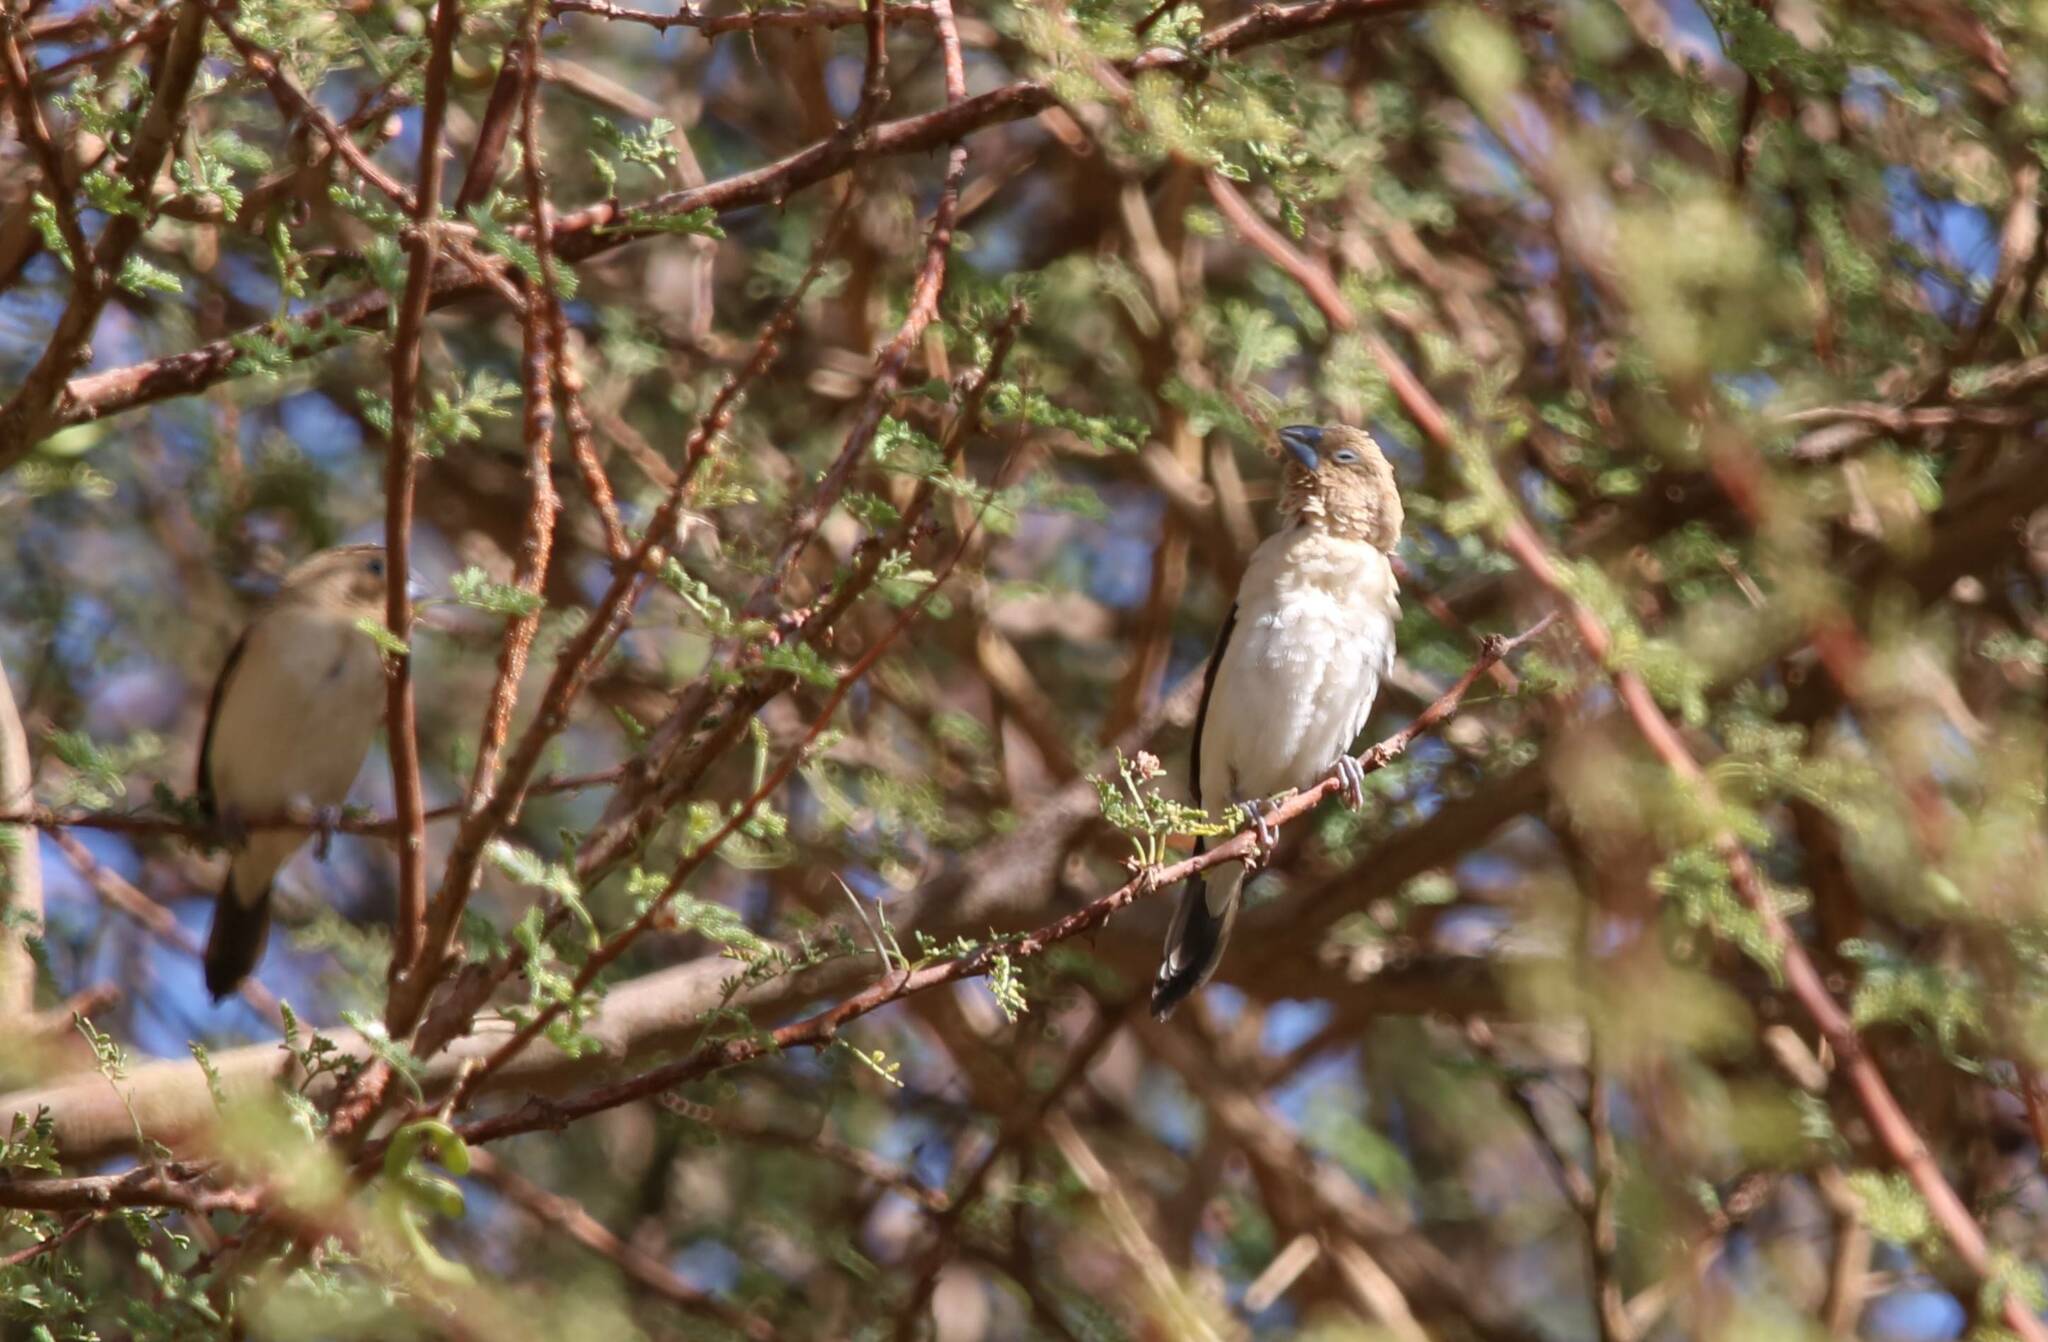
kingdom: Animalia
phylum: Chordata
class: Aves
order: Passeriformes
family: Estrildidae
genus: Euodice
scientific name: Euodice cantans
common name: African silverbill
